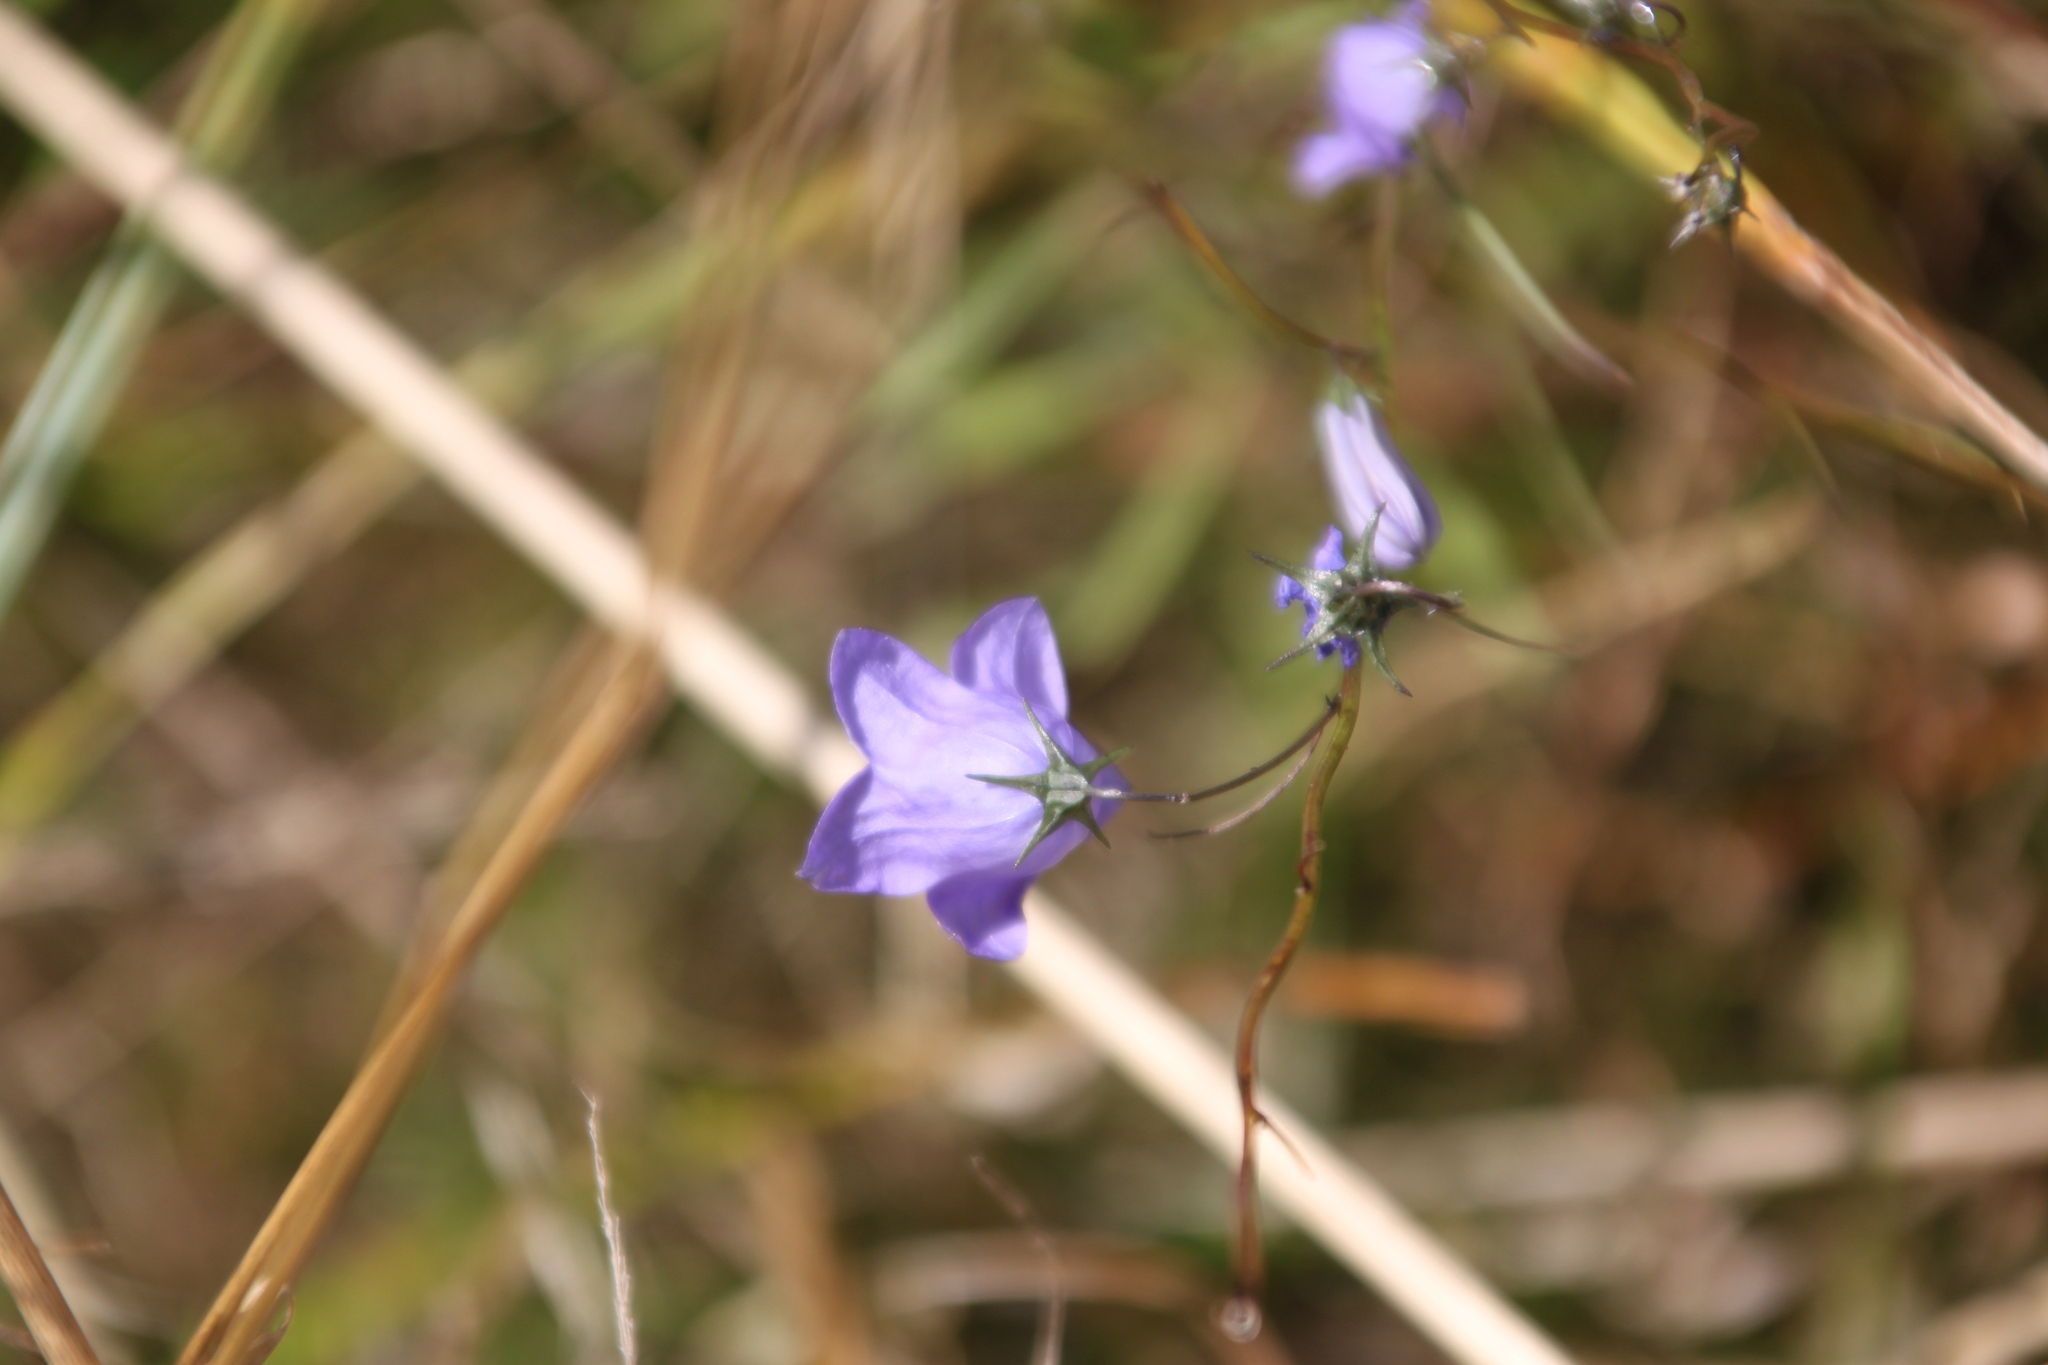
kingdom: Plantae
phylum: Tracheophyta
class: Magnoliopsida
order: Asterales
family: Campanulaceae
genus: Campanula
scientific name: Campanula rotundifolia
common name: Harebell
